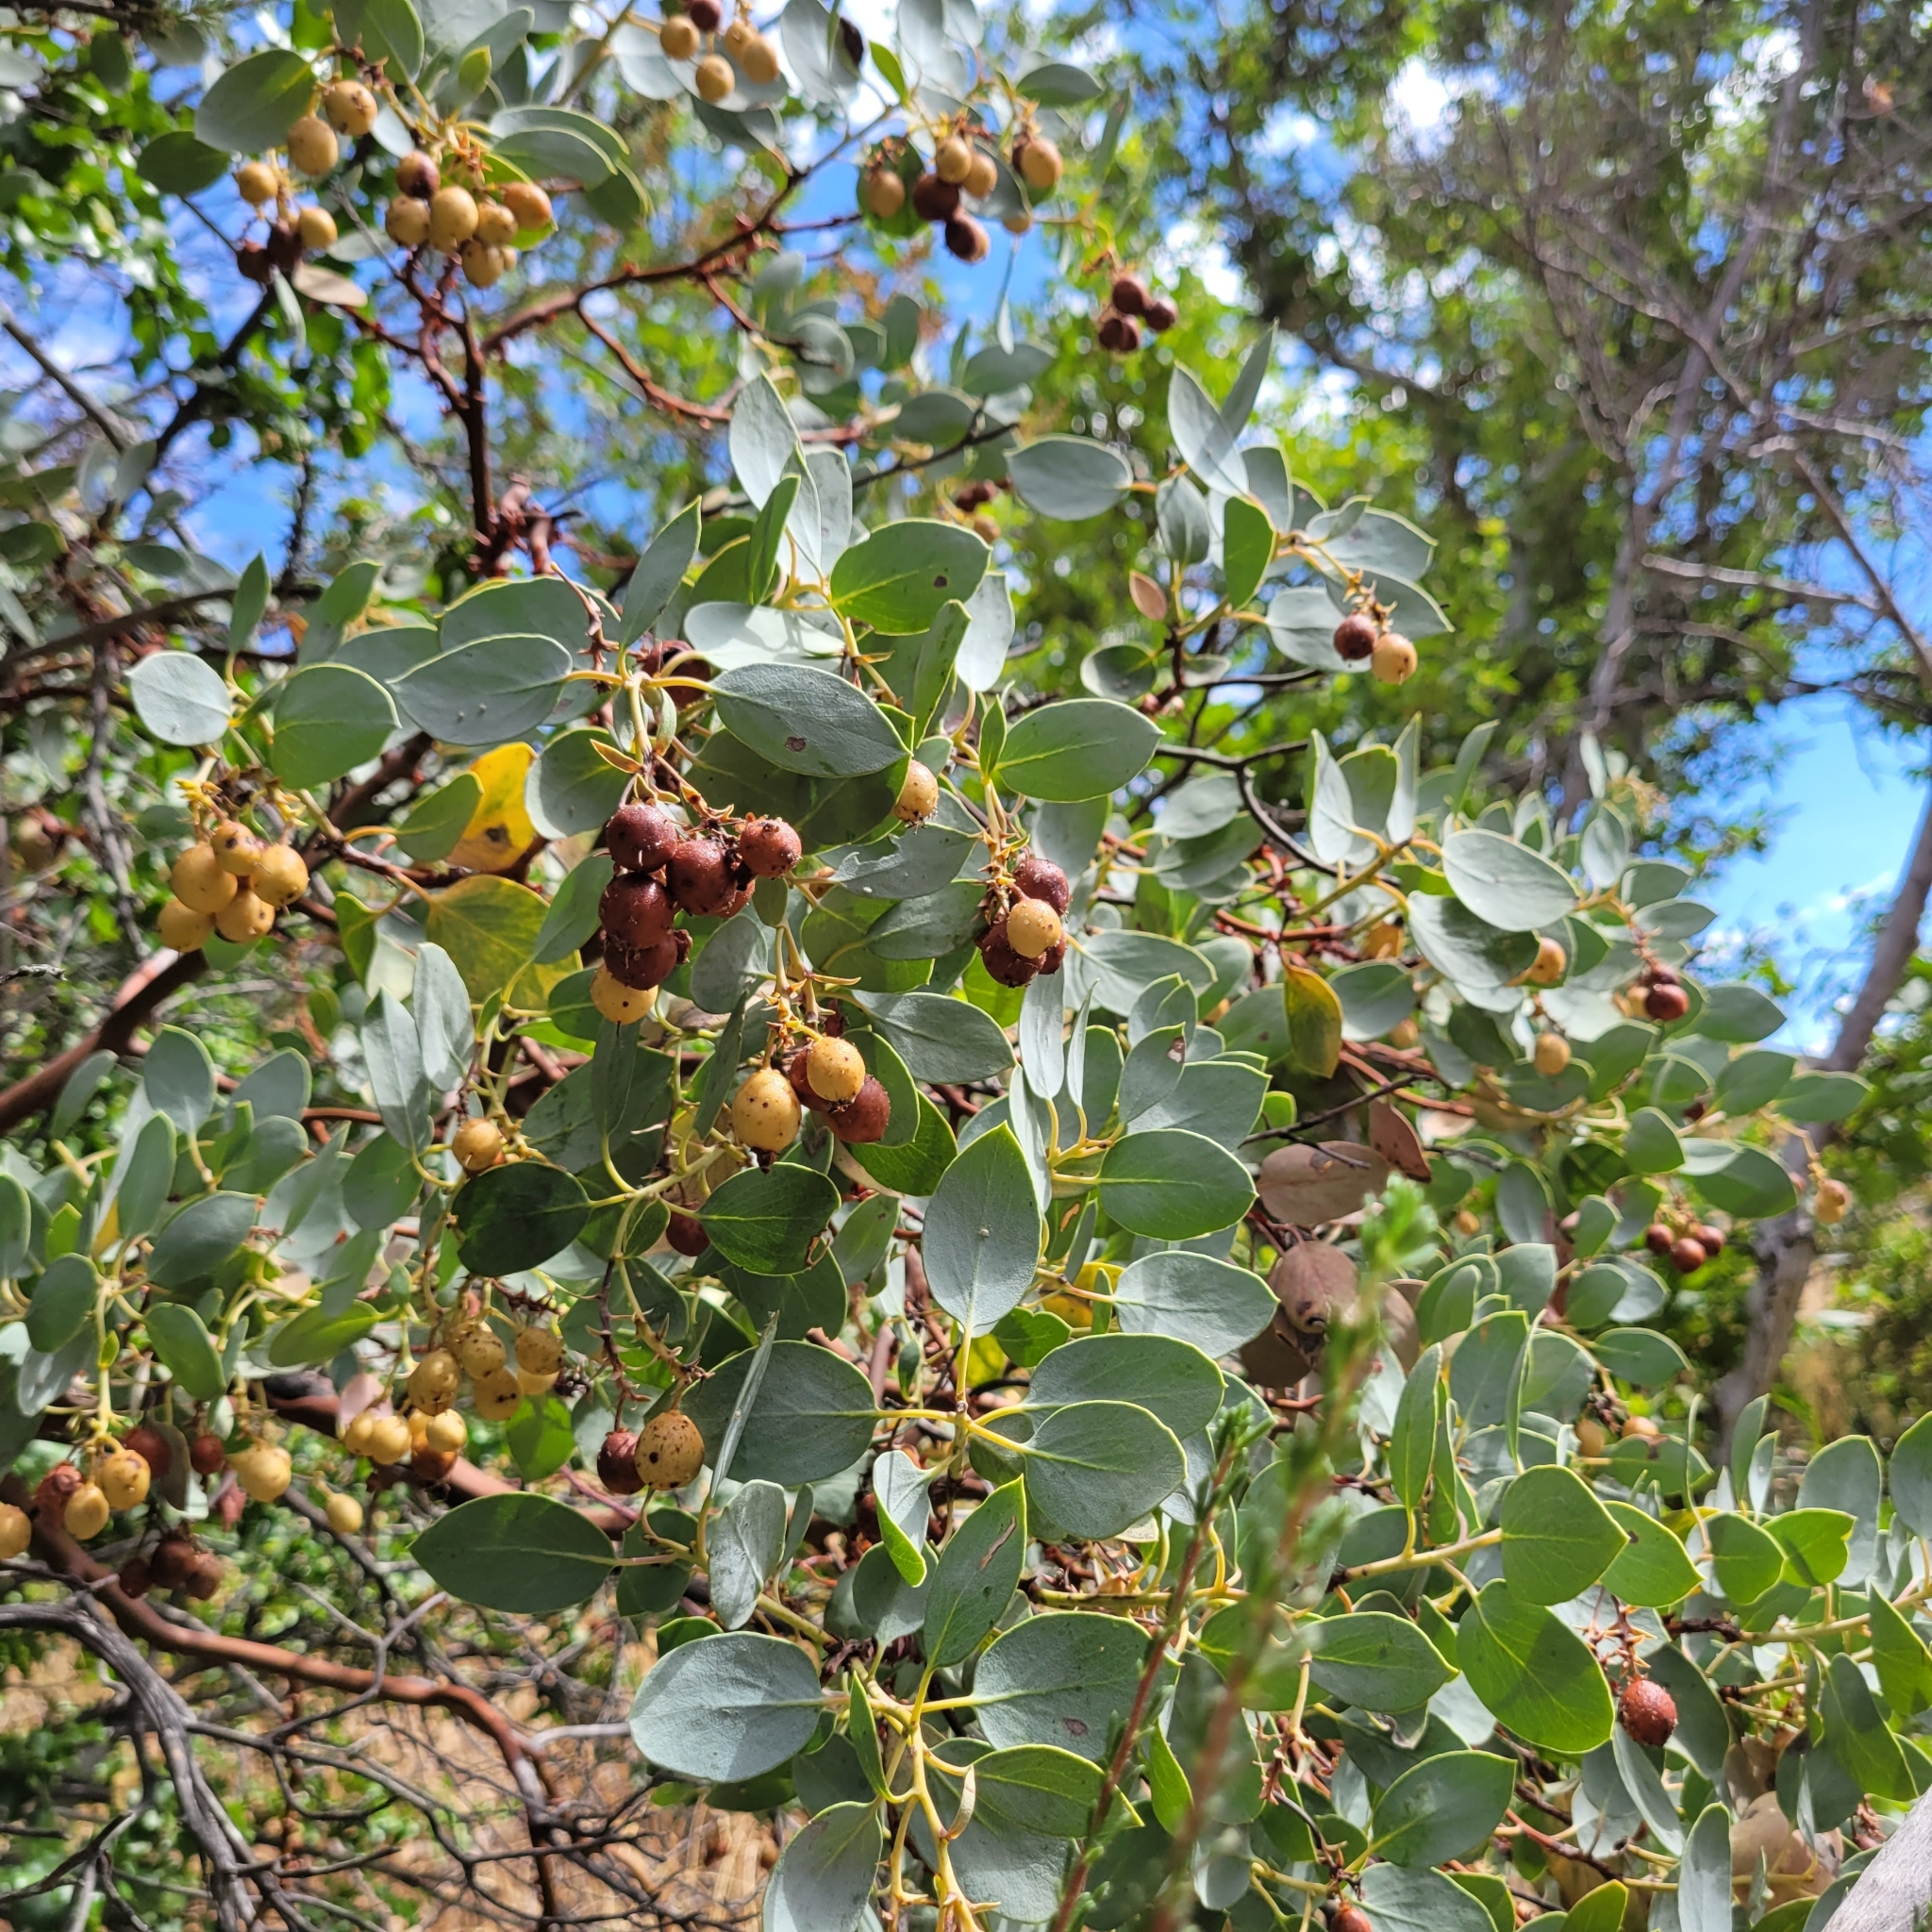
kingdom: Plantae
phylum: Tracheophyta
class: Magnoliopsida
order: Ericales
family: Ericaceae
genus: Arctostaphylos
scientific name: Arctostaphylos glauca
